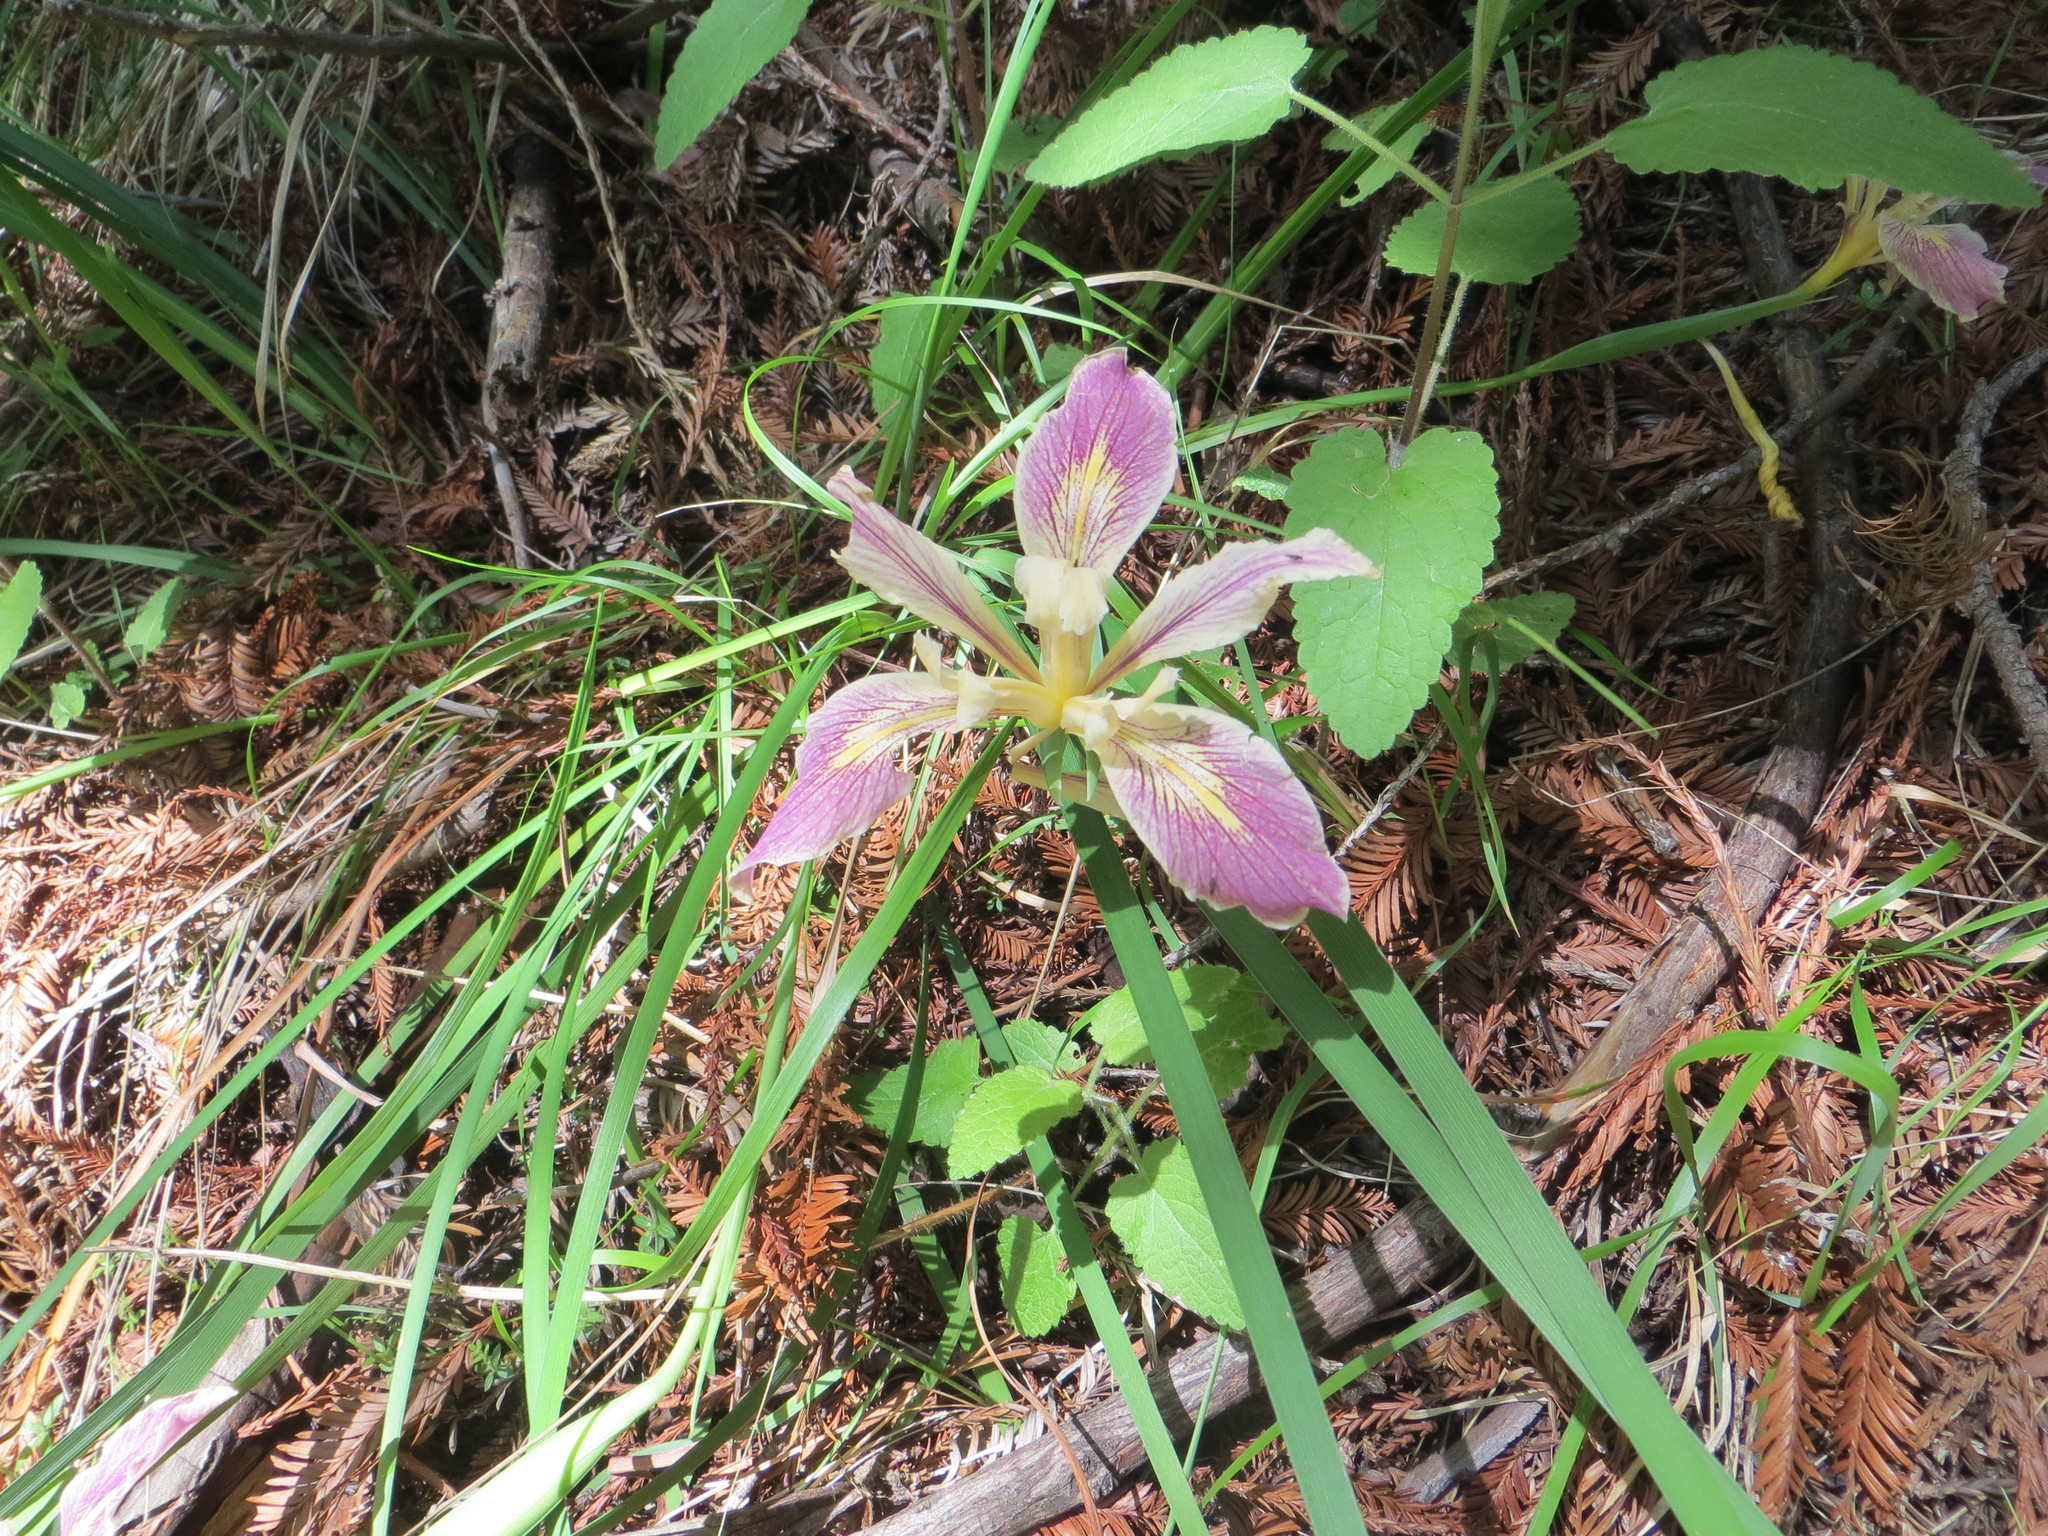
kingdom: Plantae
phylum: Tracheophyta
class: Liliopsida
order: Asparagales
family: Iridaceae
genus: Iris
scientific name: Iris fernaldii
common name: Fernald's iris
